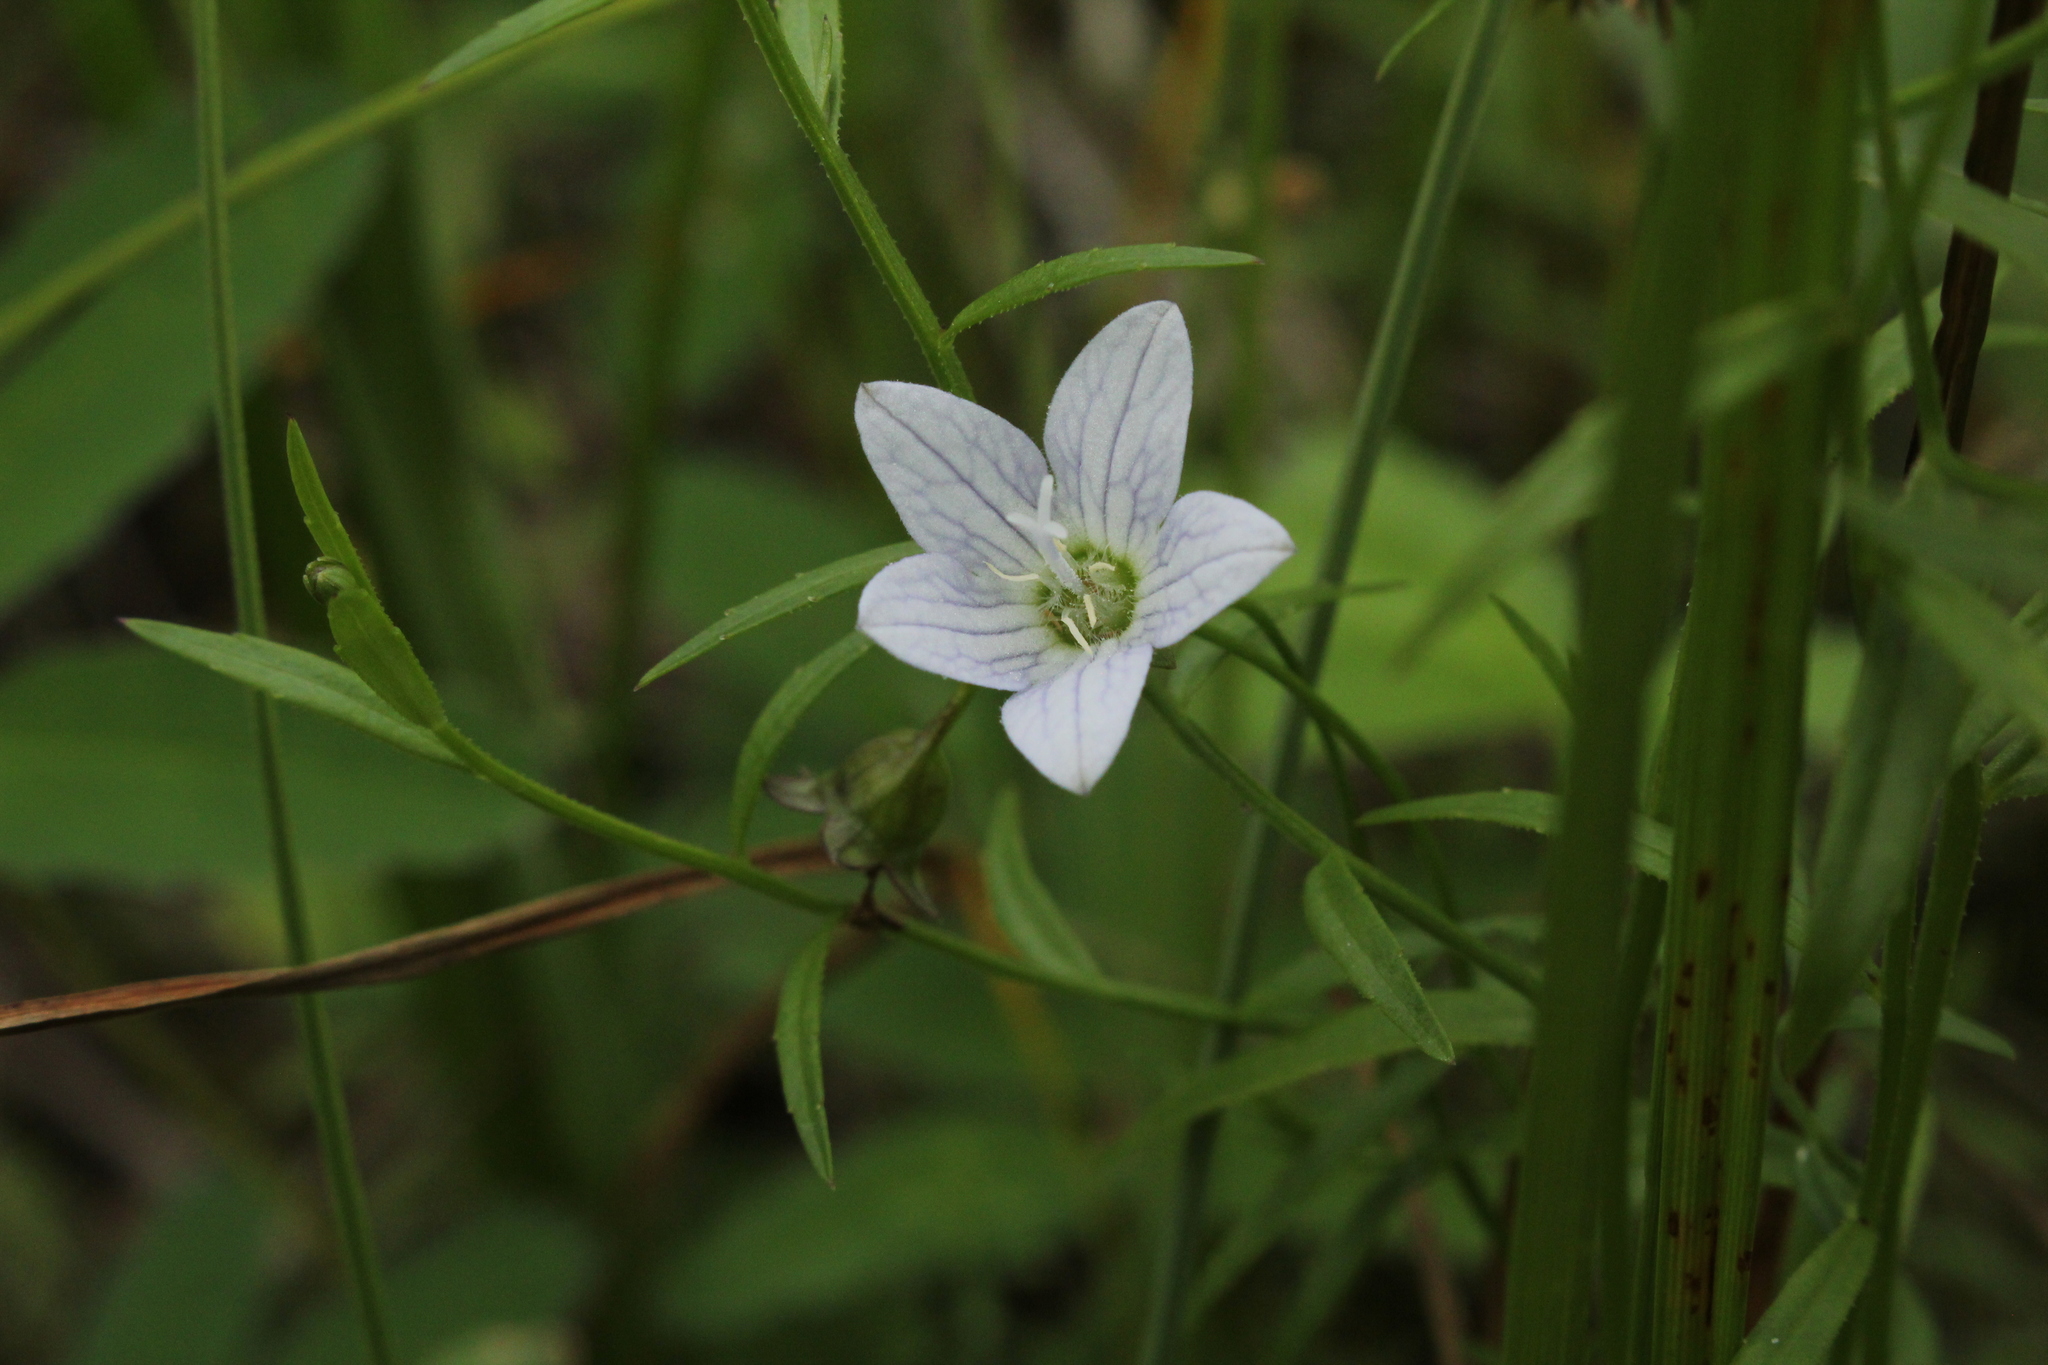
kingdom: Plantae
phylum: Tracheophyta
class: Magnoliopsida
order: Asterales
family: Campanulaceae
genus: Palustricodon
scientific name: Palustricodon aparinoides
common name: Bedstraw bellflower
